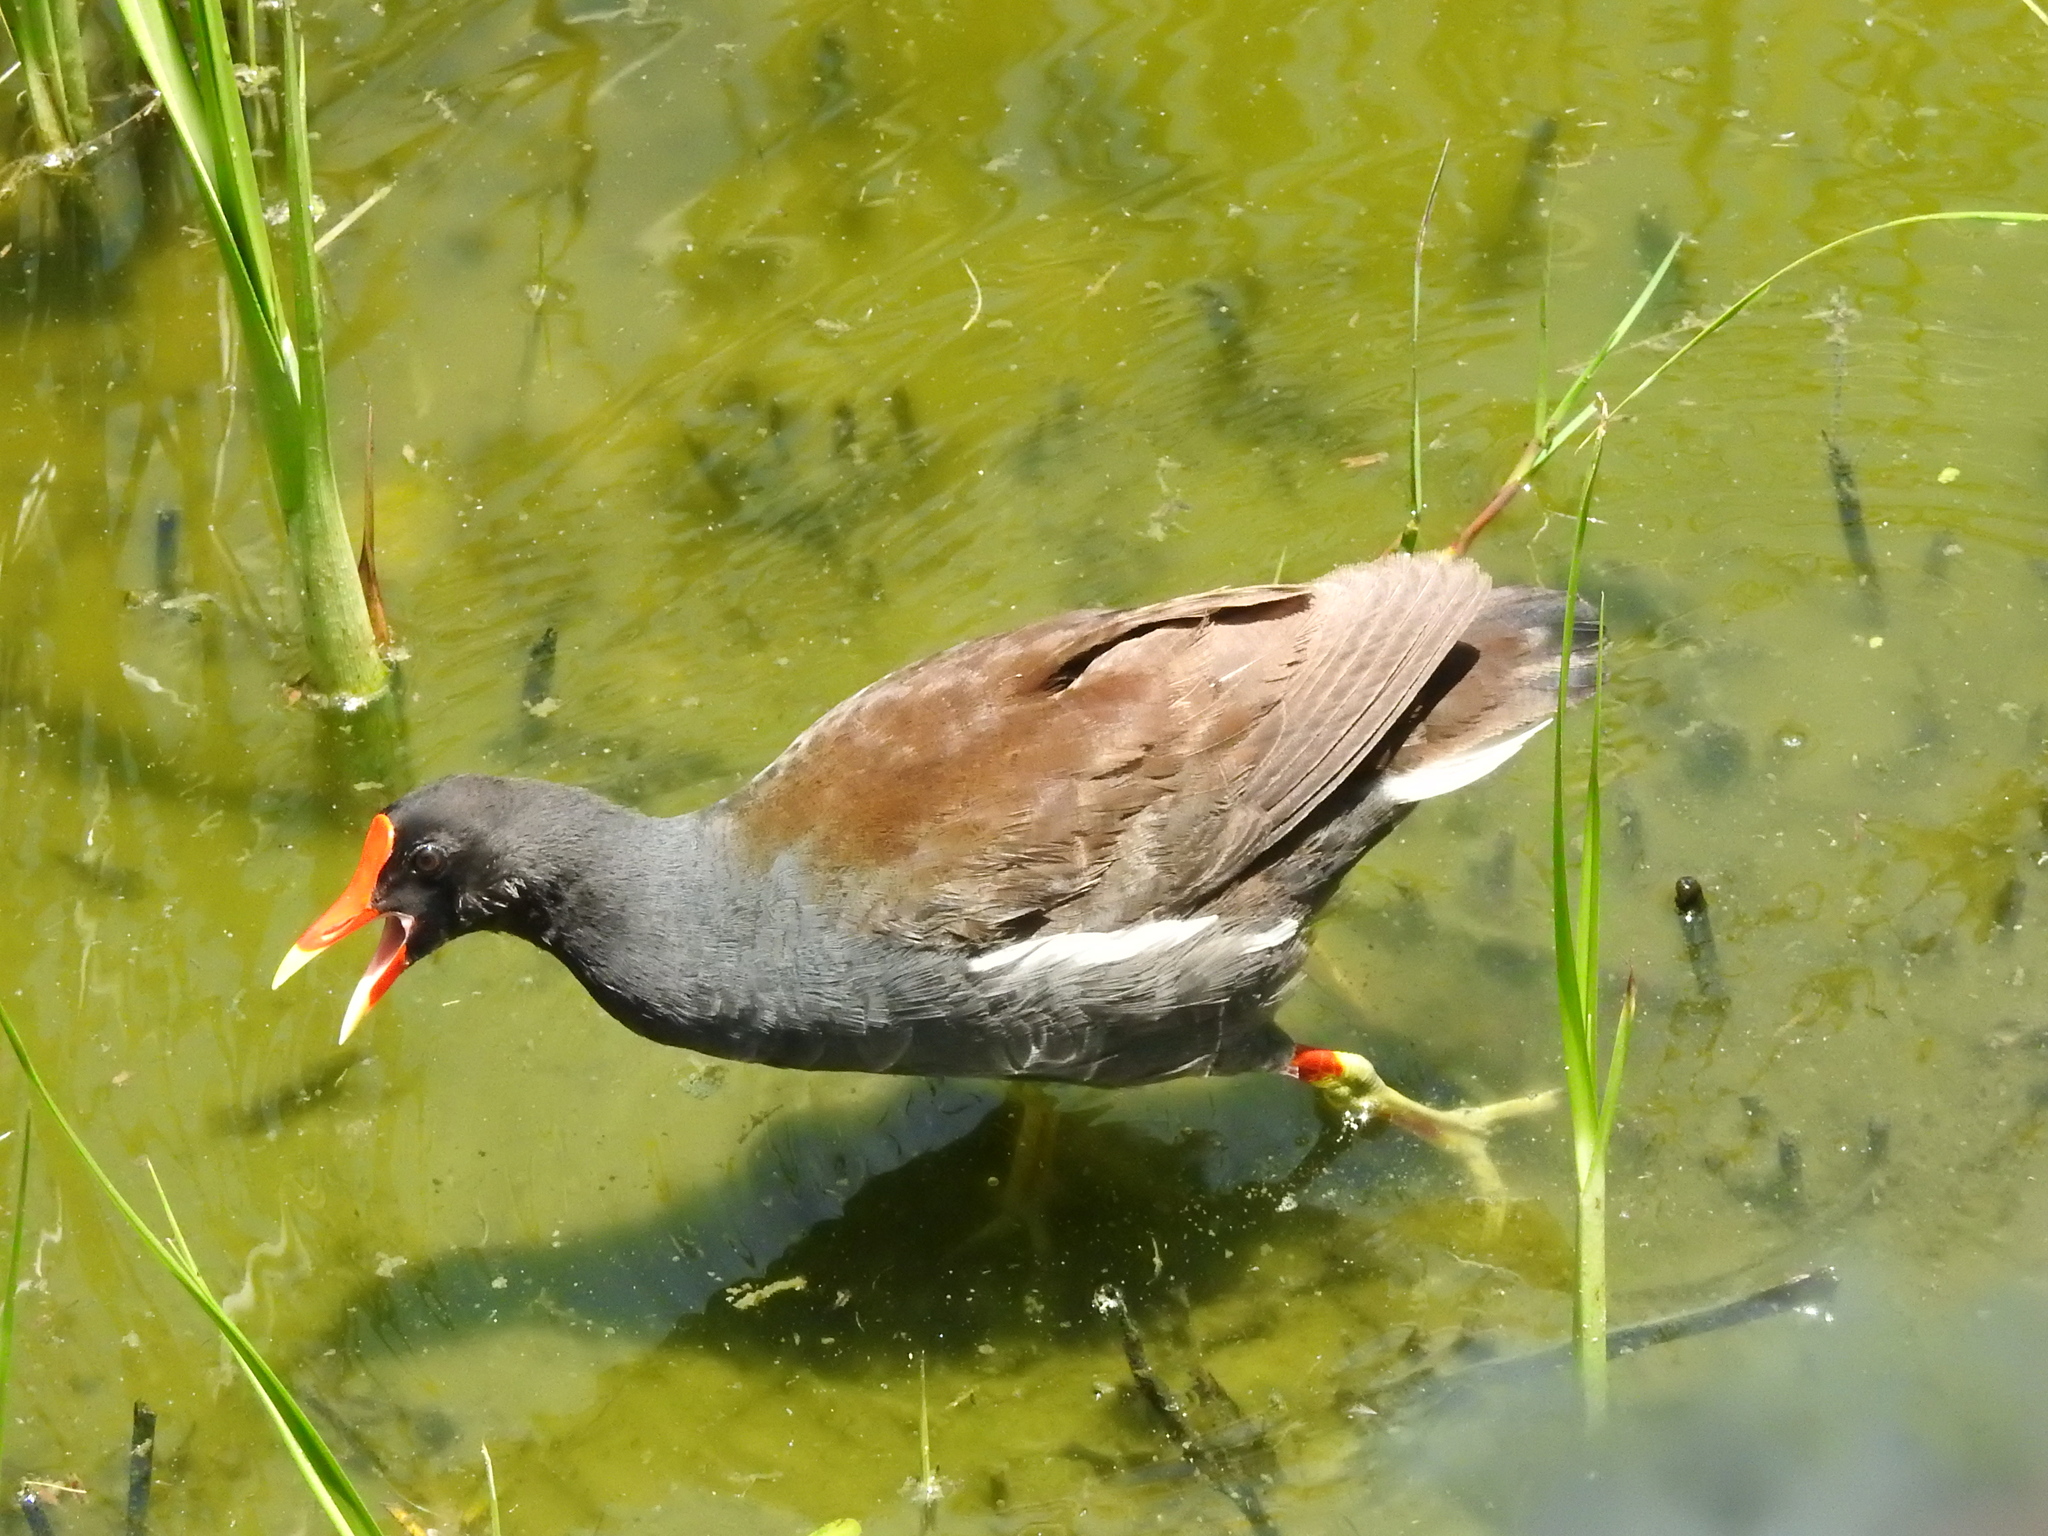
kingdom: Animalia
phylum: Chordata
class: Aves
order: Gruiformes
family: Rallidae
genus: Gallinula
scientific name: Gallinula chloropus
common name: Common moorhen
